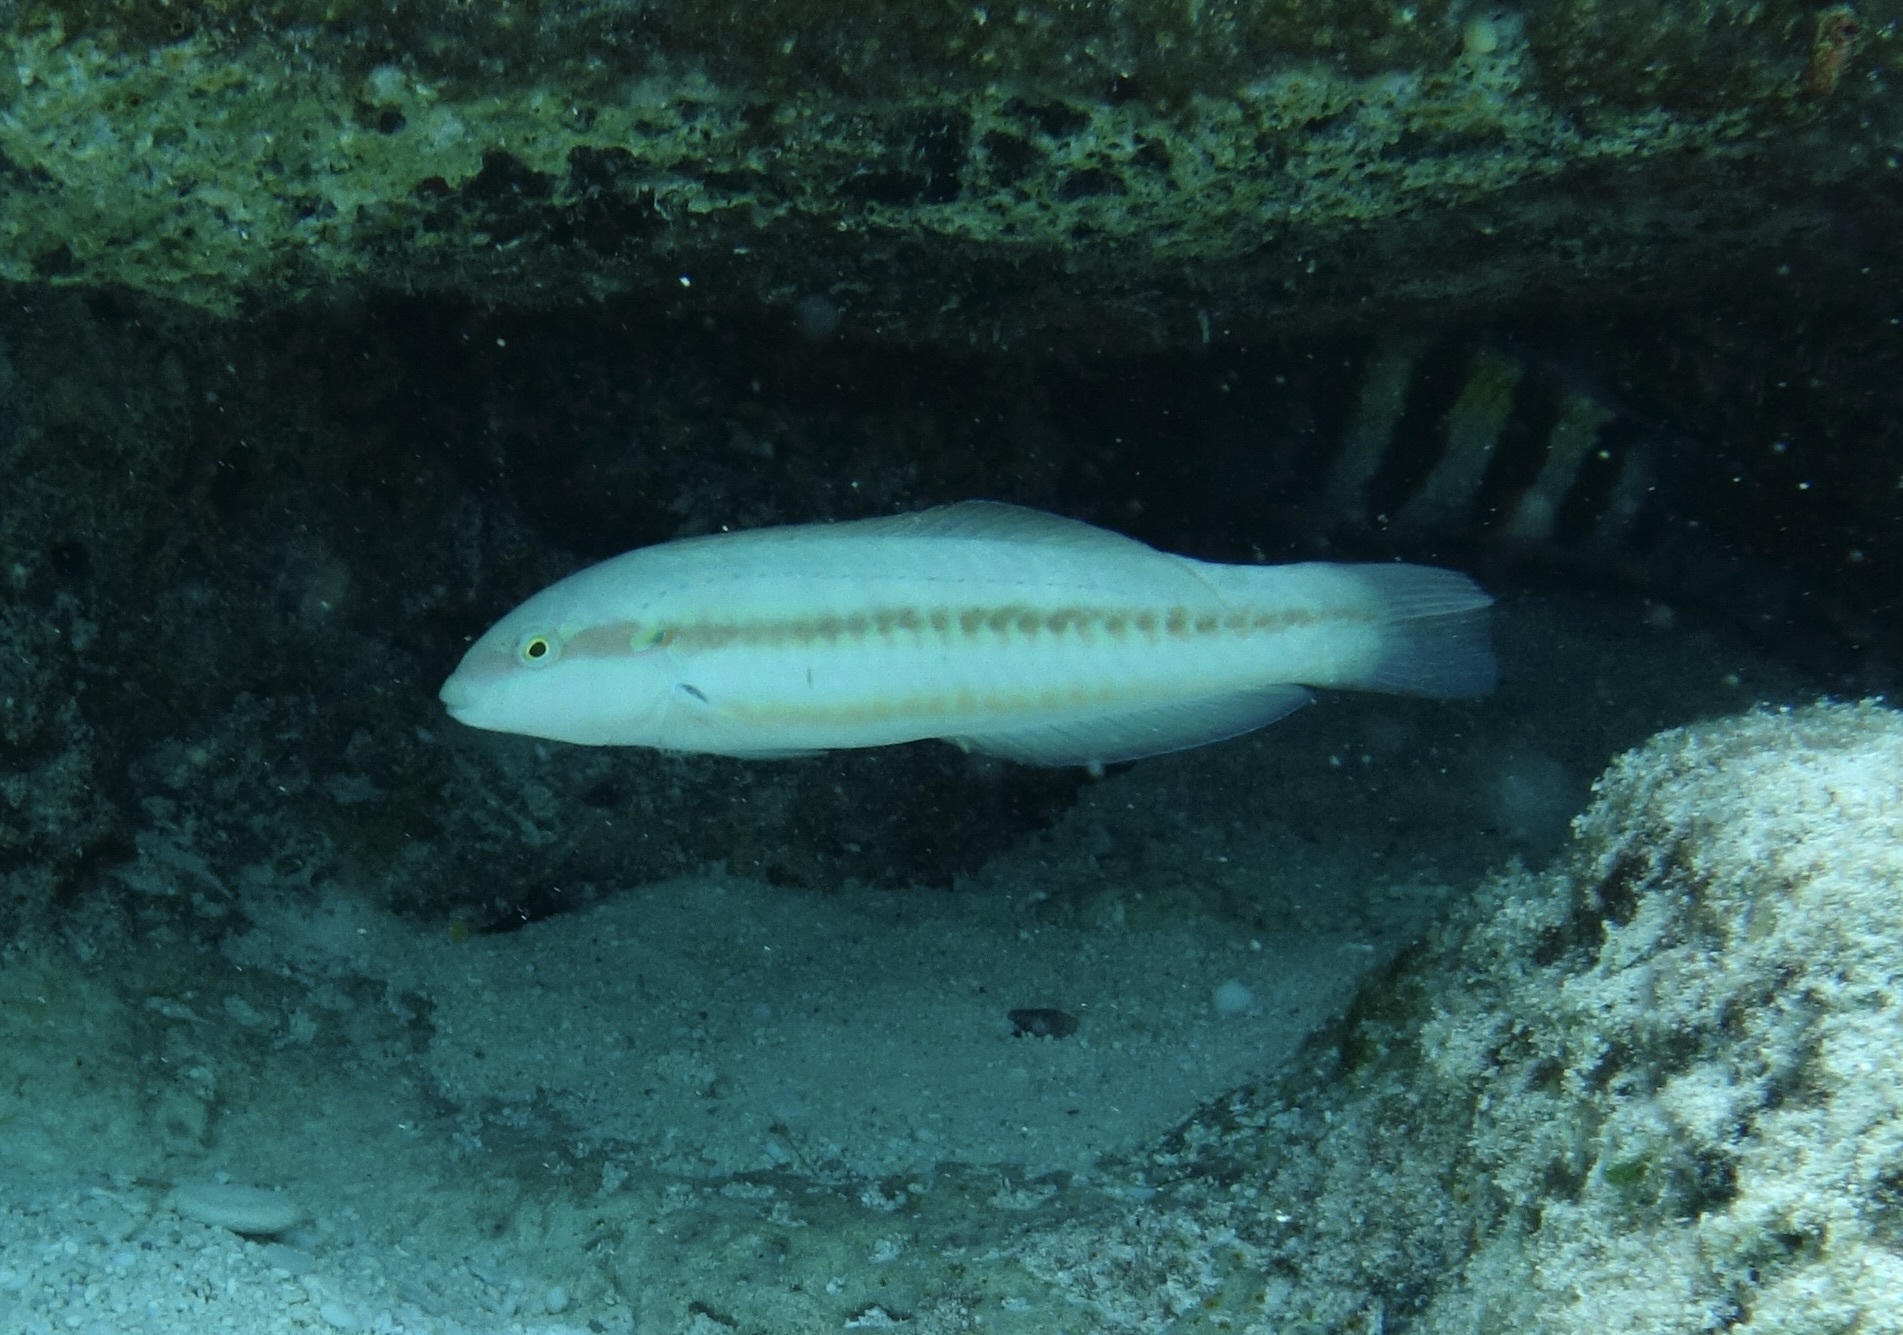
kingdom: Animalia
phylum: Chordata
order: Perciformes
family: Labridae
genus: Halichoeres
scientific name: Halichoeres bivittatus
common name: Slippery dick
